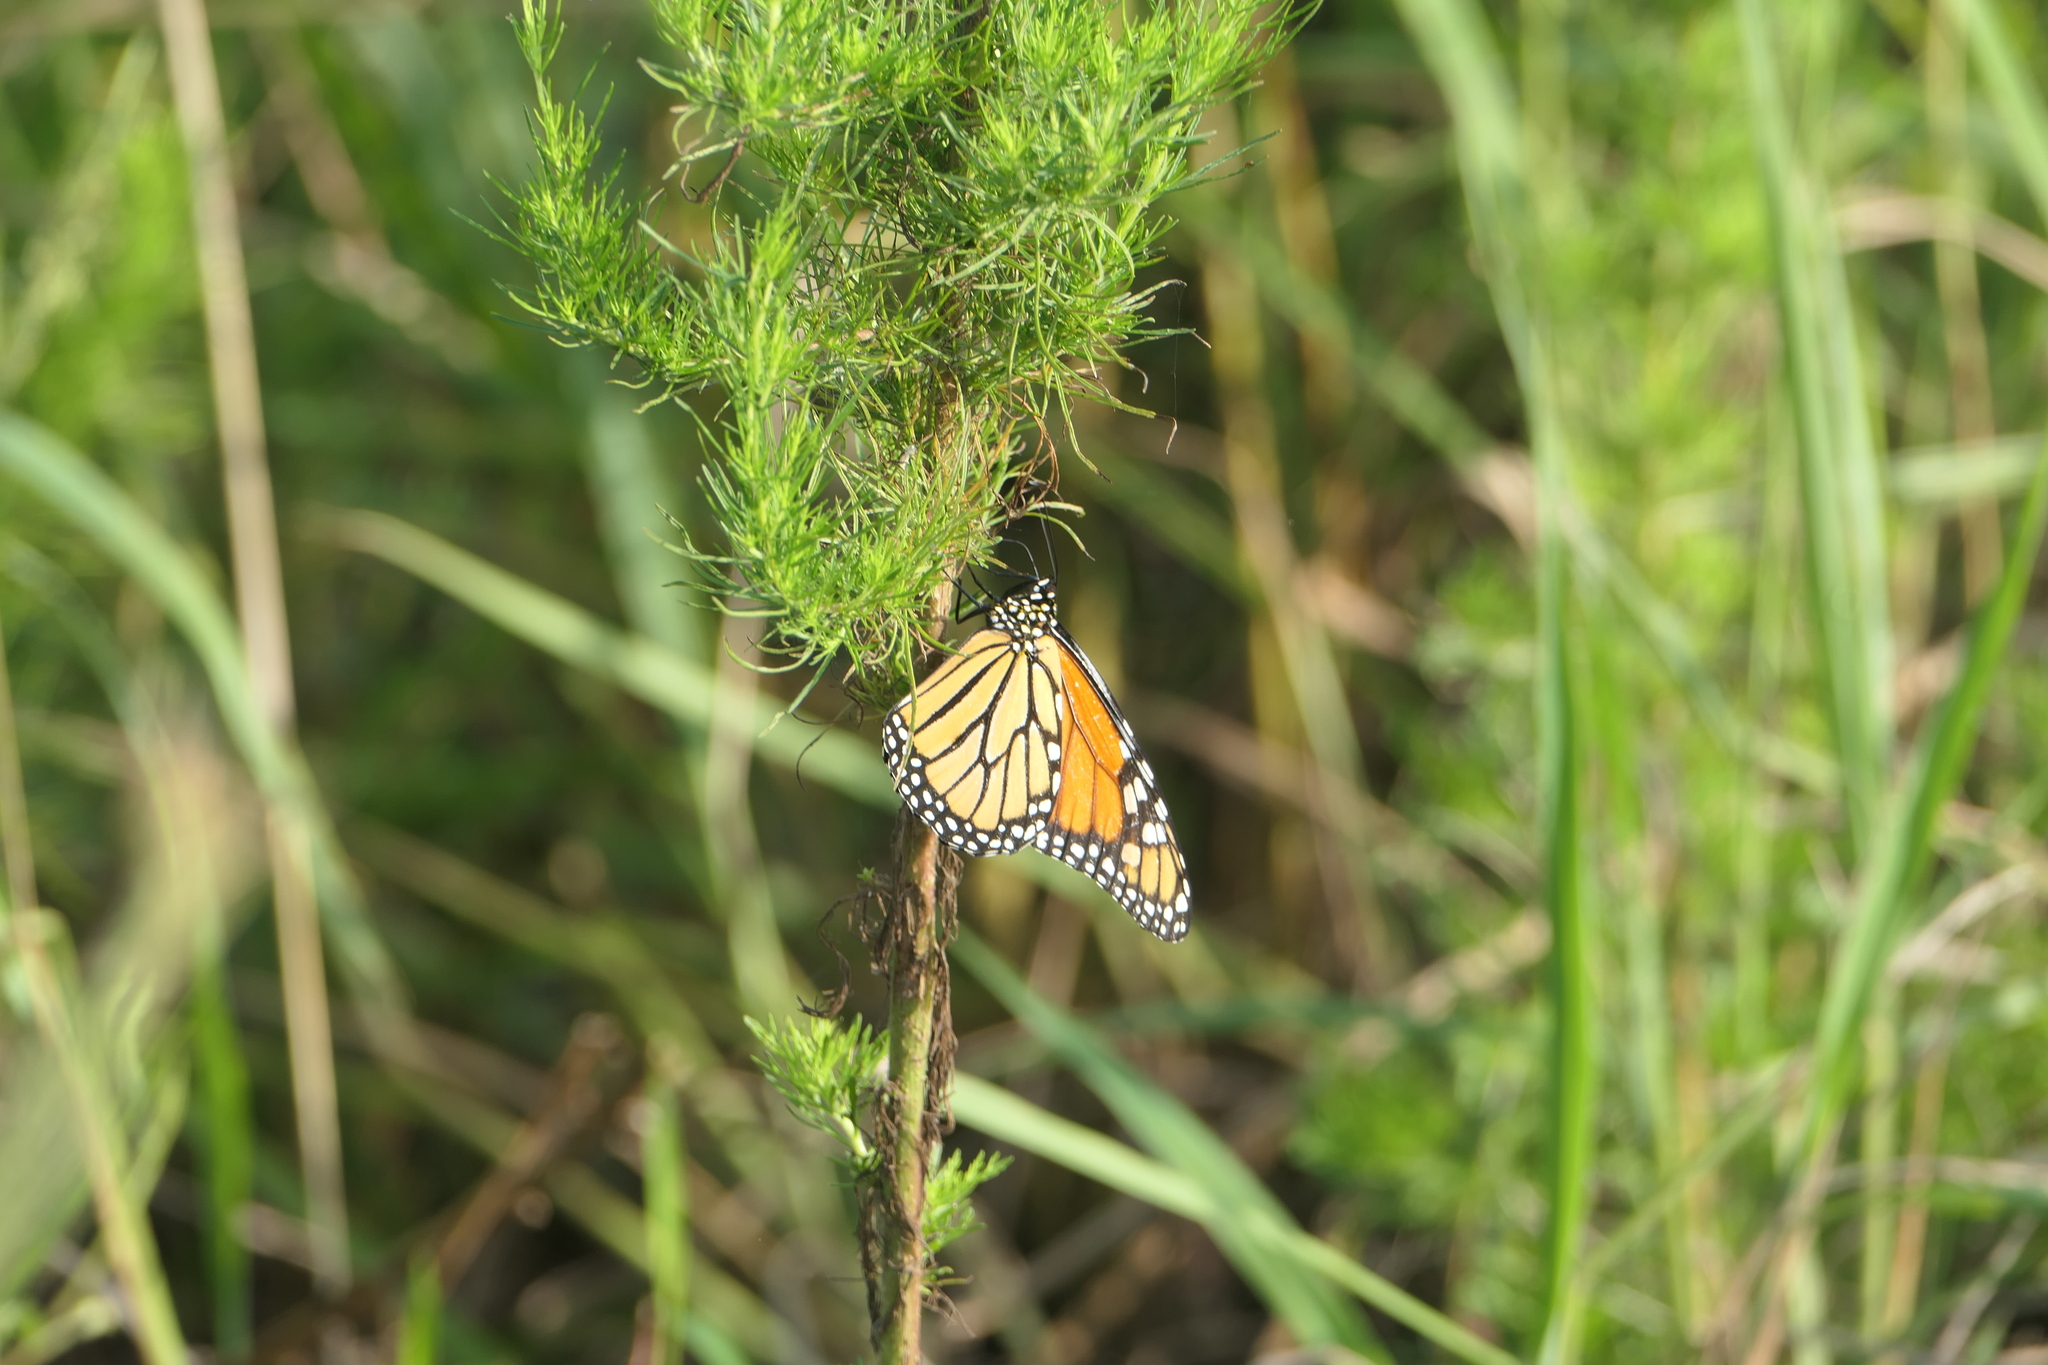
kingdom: Animalia
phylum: Arthropoda
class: Insecta
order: Lepidoptera
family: Nymphalidae
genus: Danaus
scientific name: Danaus plexippus
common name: Monarch
